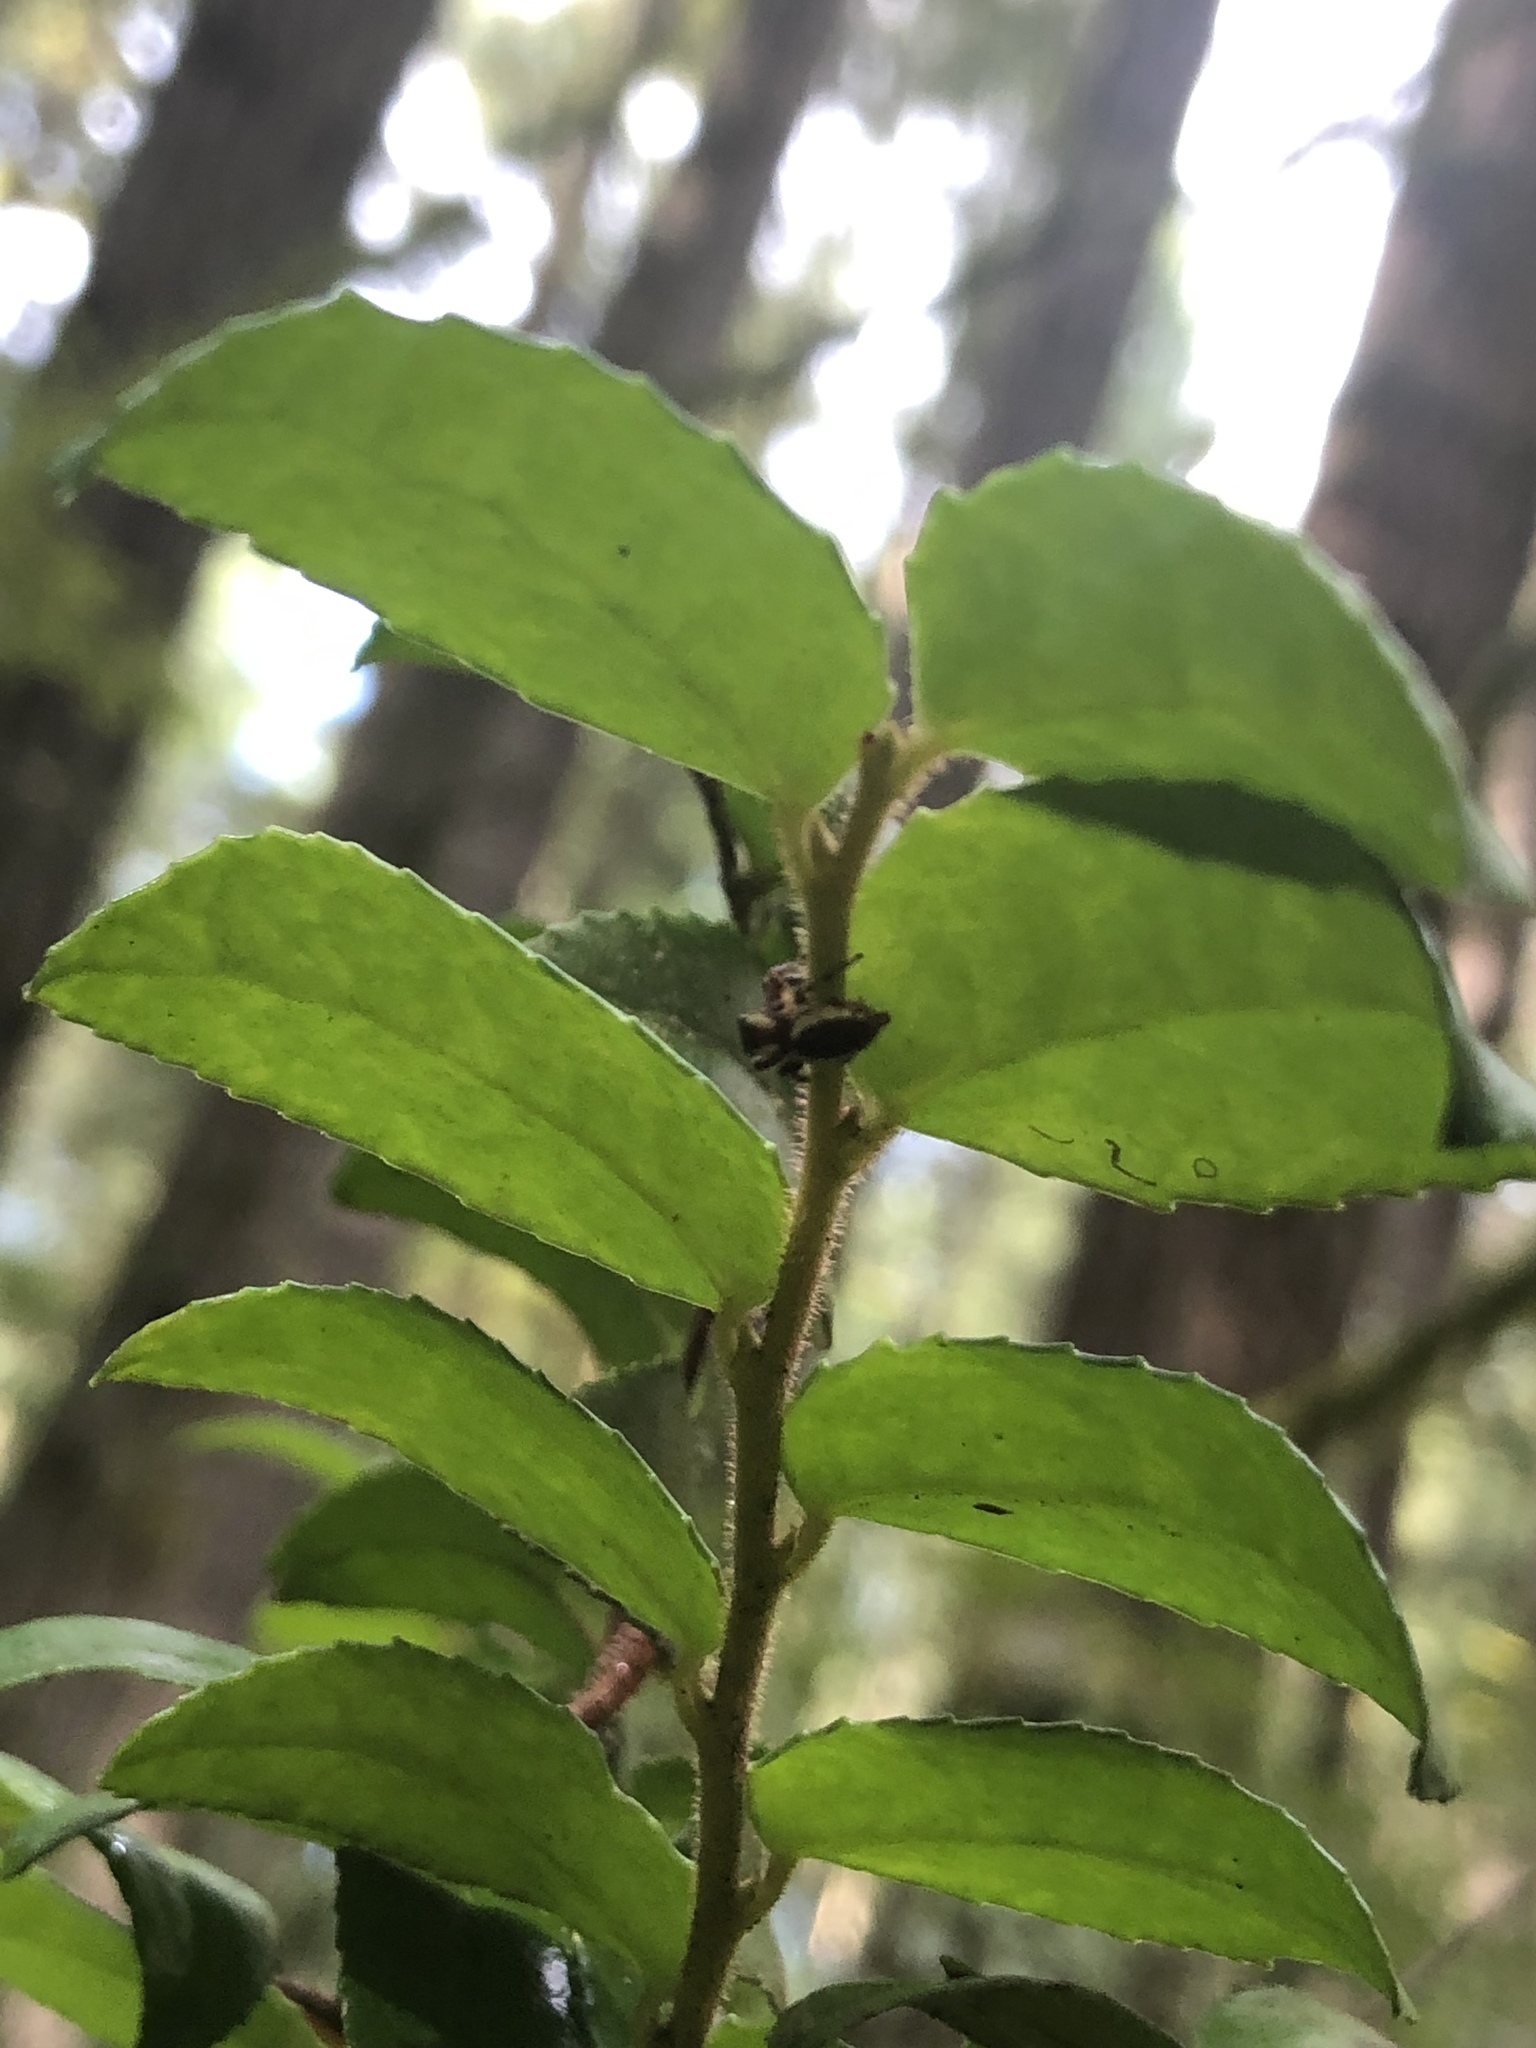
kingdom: Plantae
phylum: Tracheophyta
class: Magnoliopsida
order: Ericales
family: Ericaceae
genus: Vaccinium
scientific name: Vaccinium ovatum
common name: California-huckleberry
